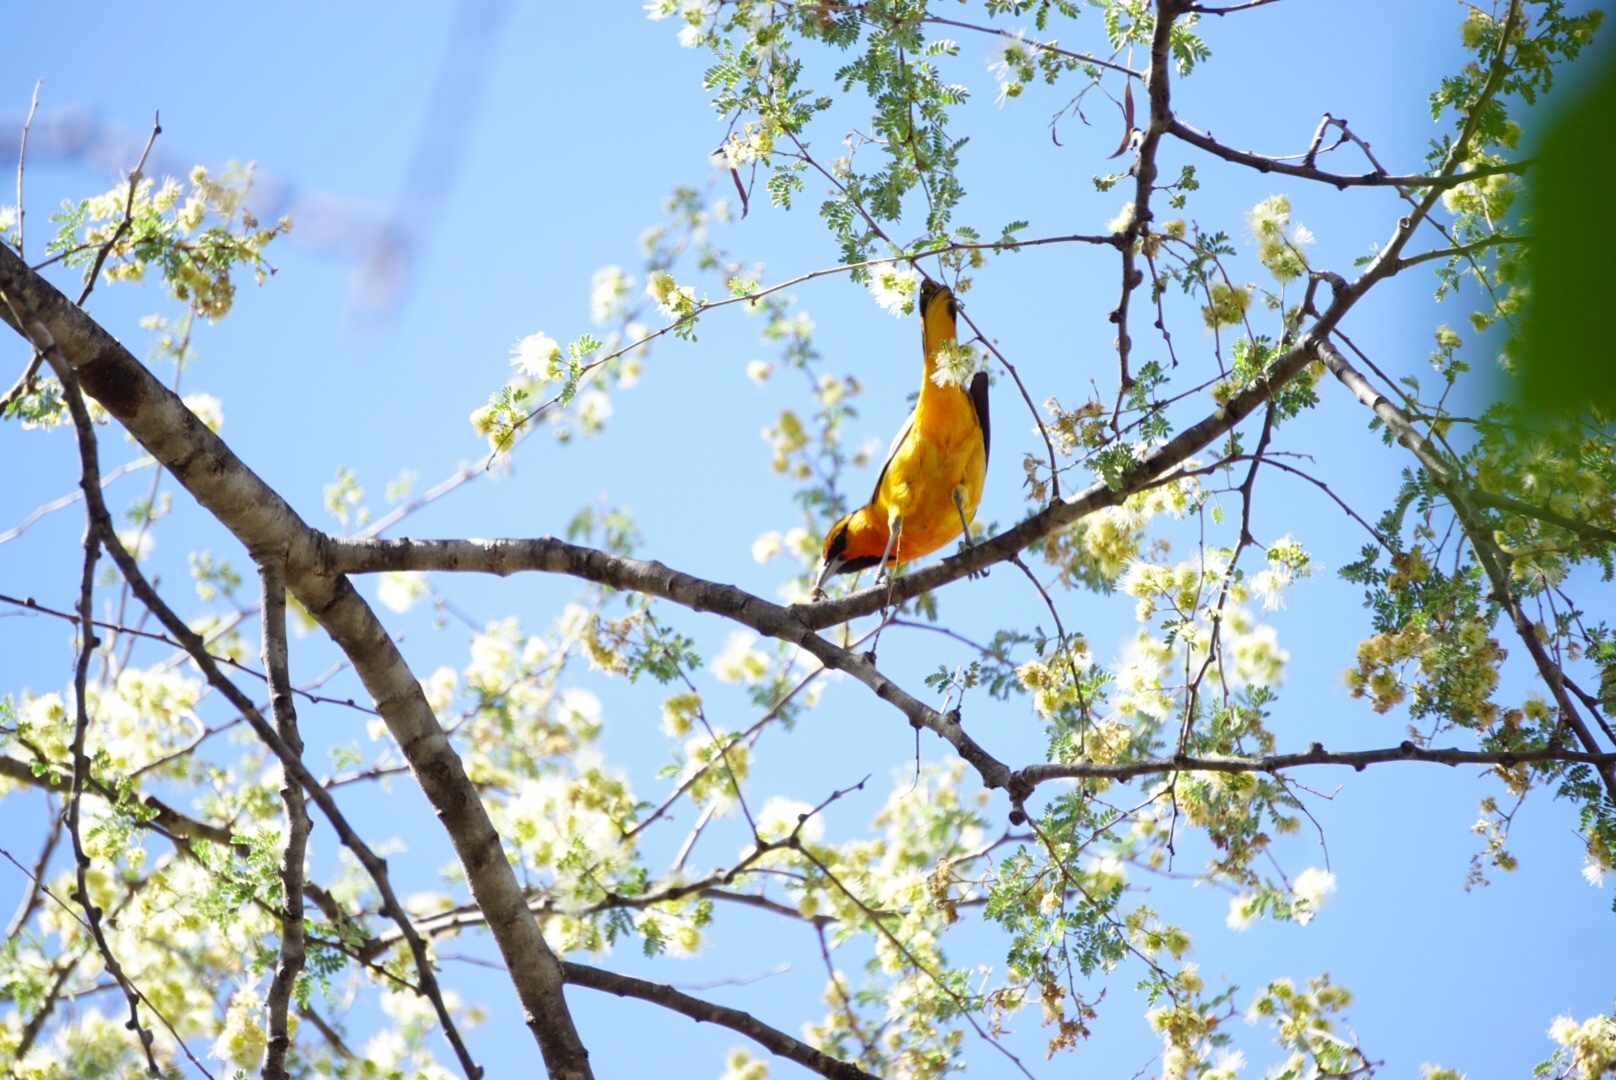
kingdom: Animalia
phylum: Chordata
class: Aves
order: Passeriformes
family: Icteridae
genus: Icterus
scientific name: Icterus bullockii
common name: Bullock's oriole
